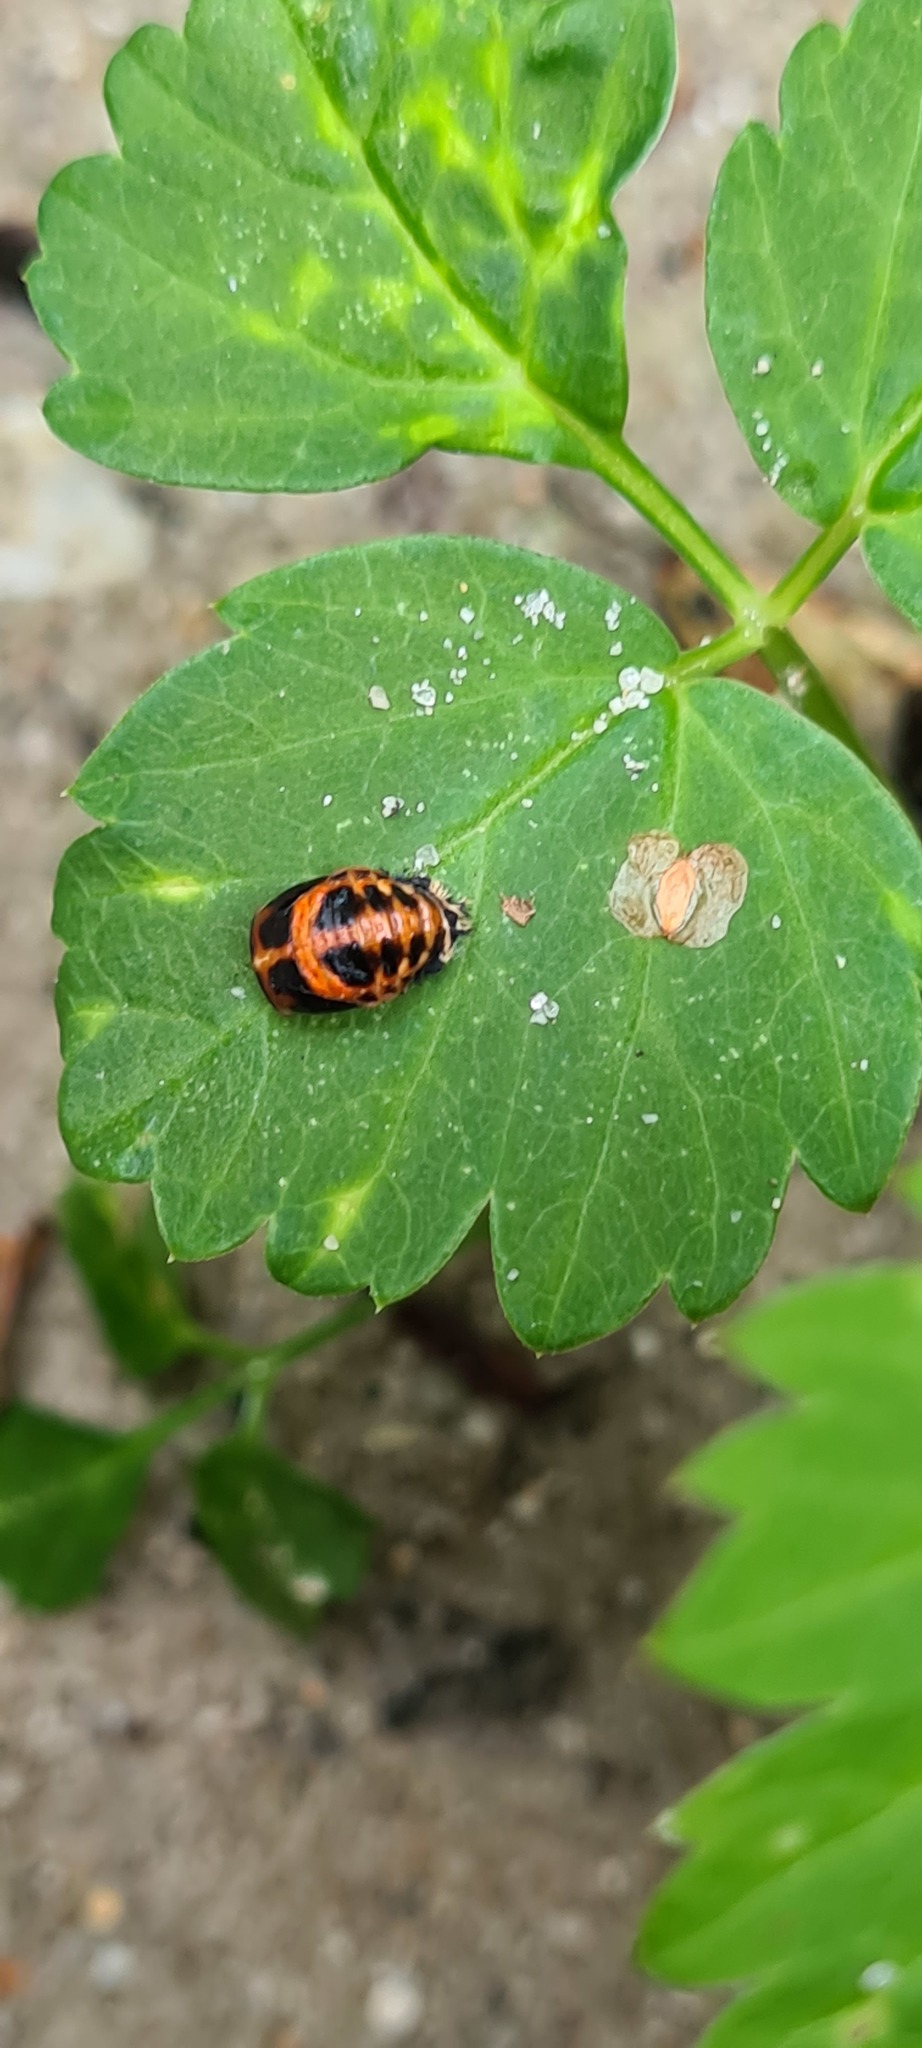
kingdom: Animalia
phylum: Arthropoda
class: Insecta
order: Coleoptera
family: Coccinellidae
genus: Harmonia
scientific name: Harmonia axyridis
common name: Harlequin ladybird
